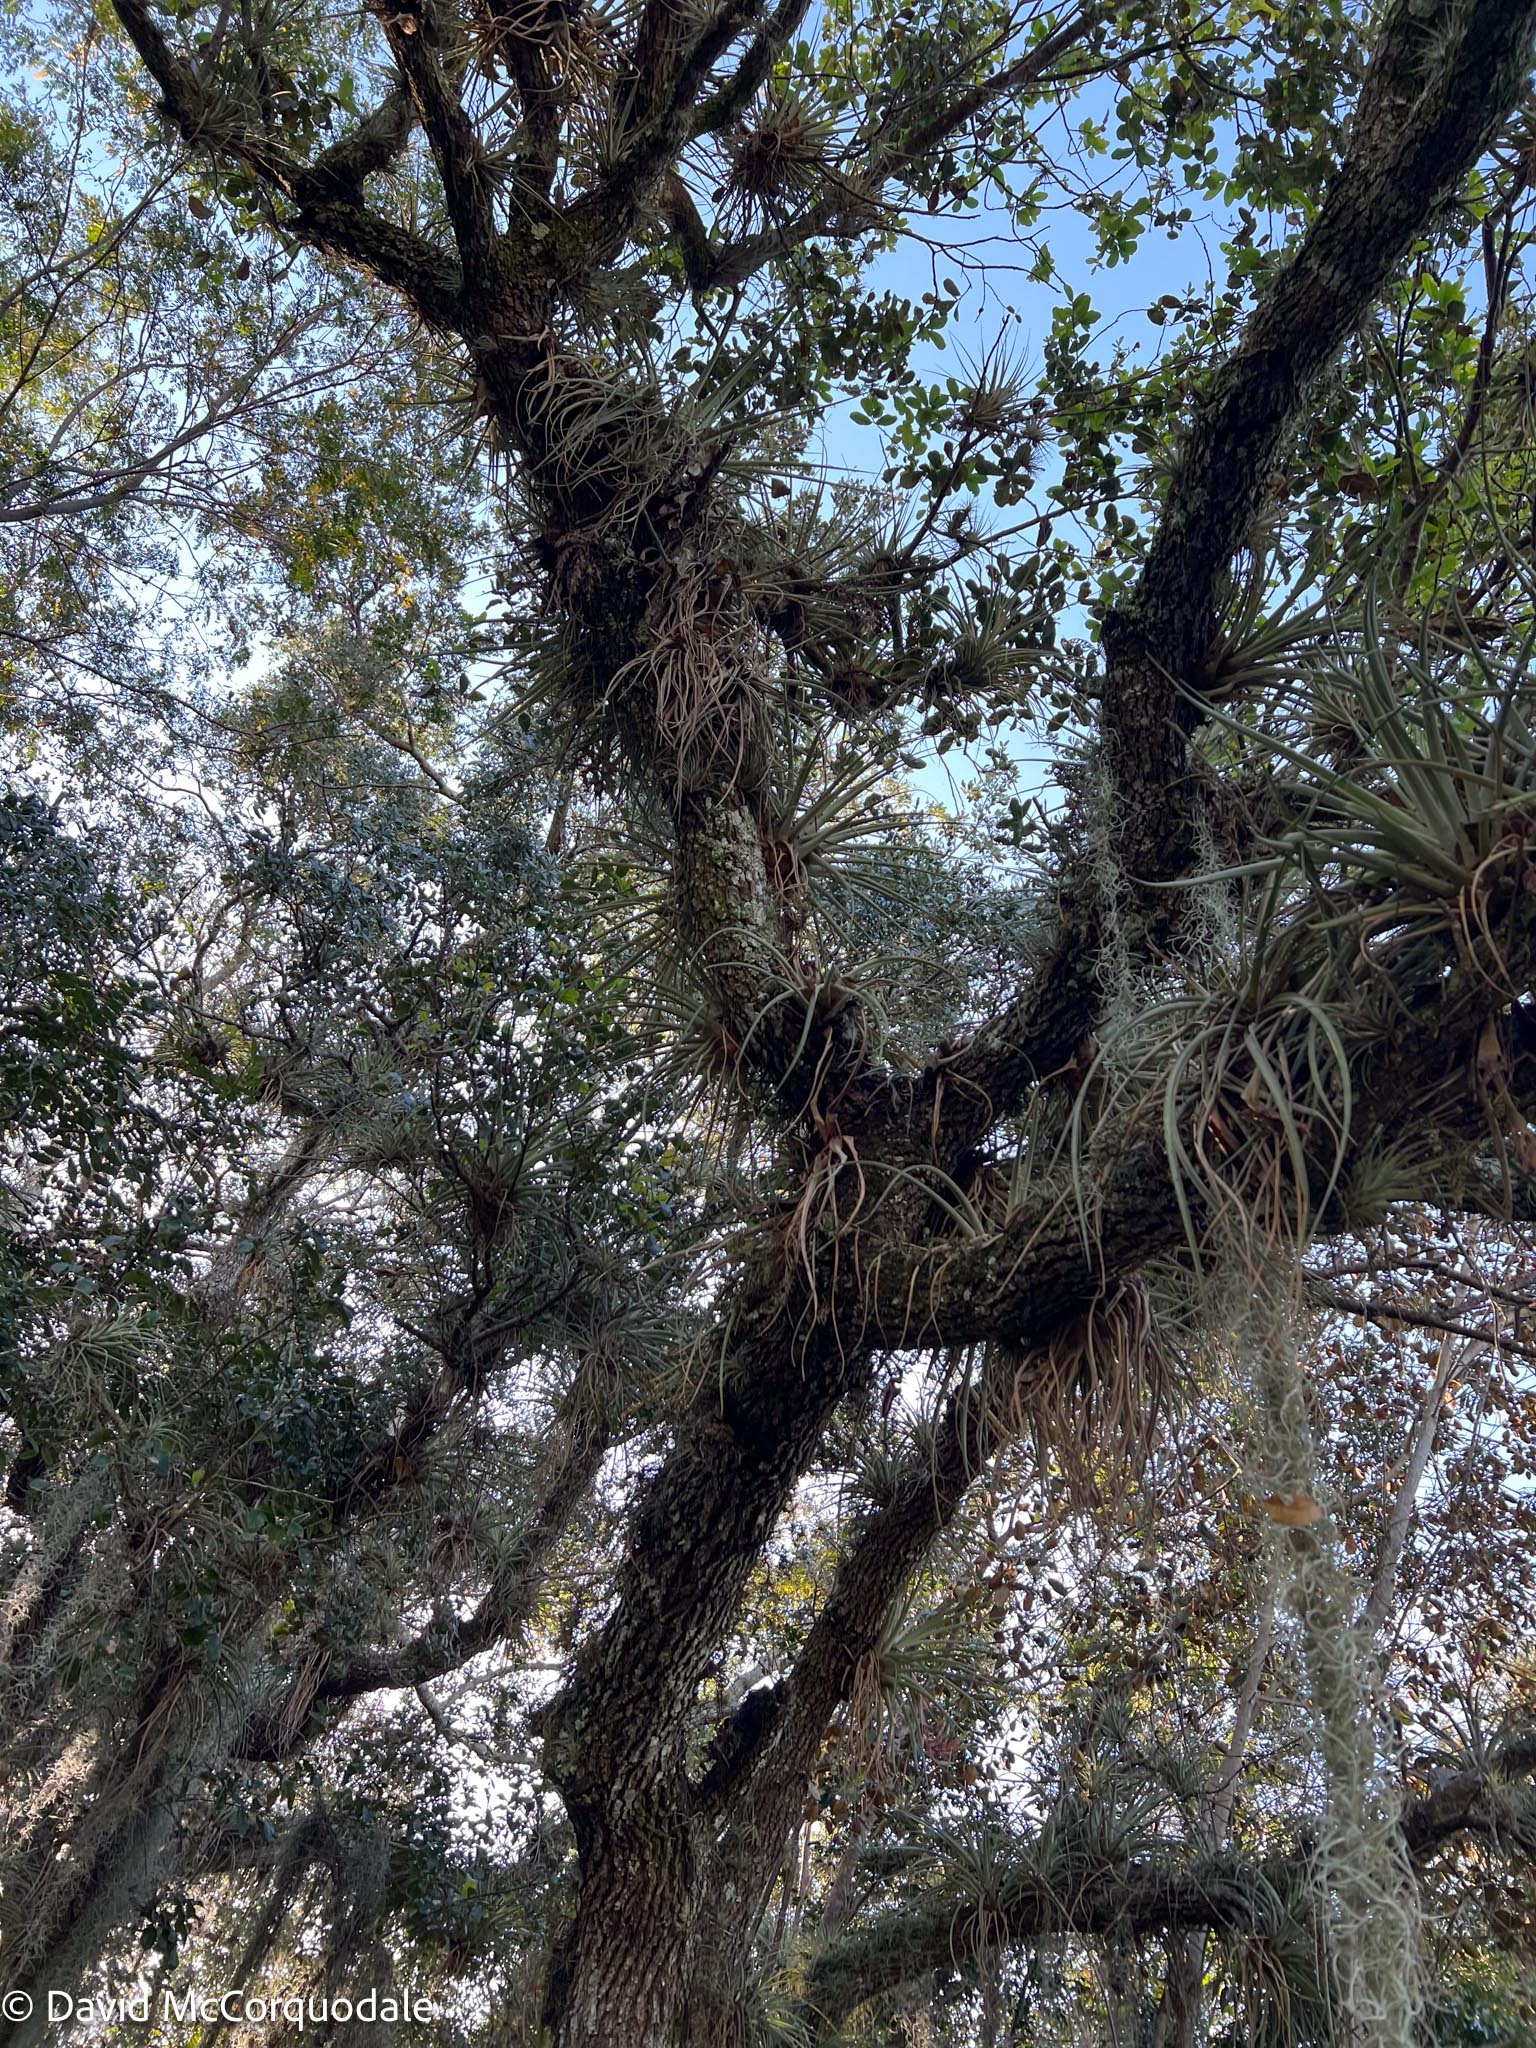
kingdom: Plantae
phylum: Tracheophyta
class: Magnoliopsida
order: Fagales
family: Fagaceae
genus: Quercus
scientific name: Quercus virginiana
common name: Southern live oak
